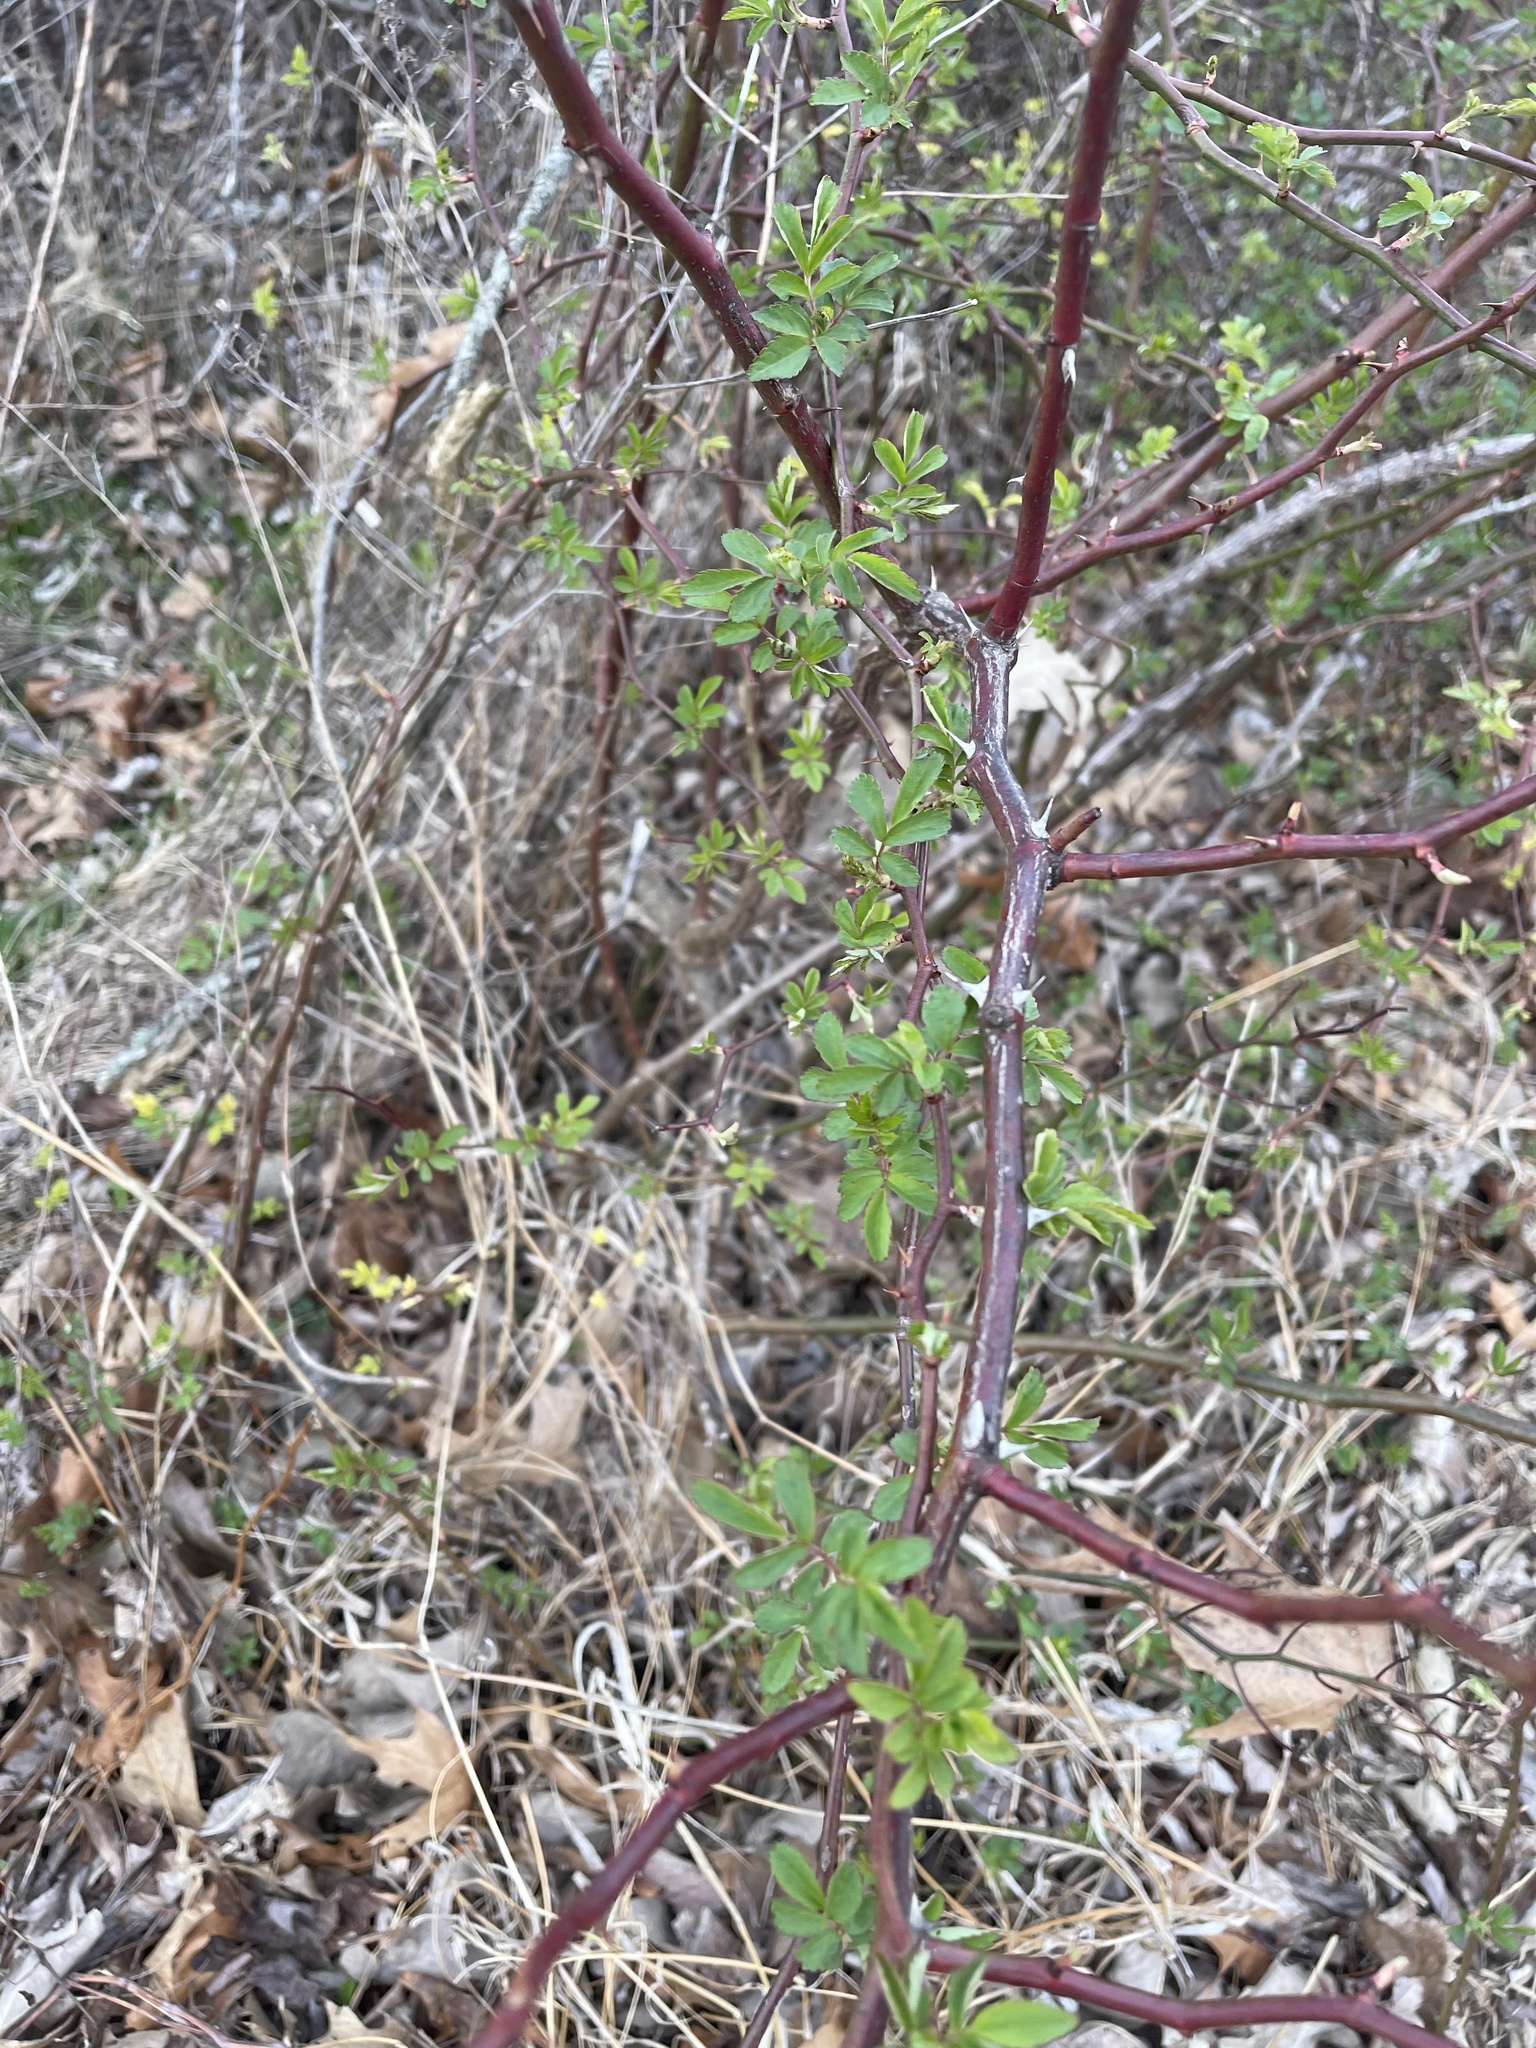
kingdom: Plantae
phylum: Tracheophyta
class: Magnoliopsida
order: Rosales
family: Rosaceae
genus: Rosa
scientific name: Rosa multiflora
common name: Multiflora rose
